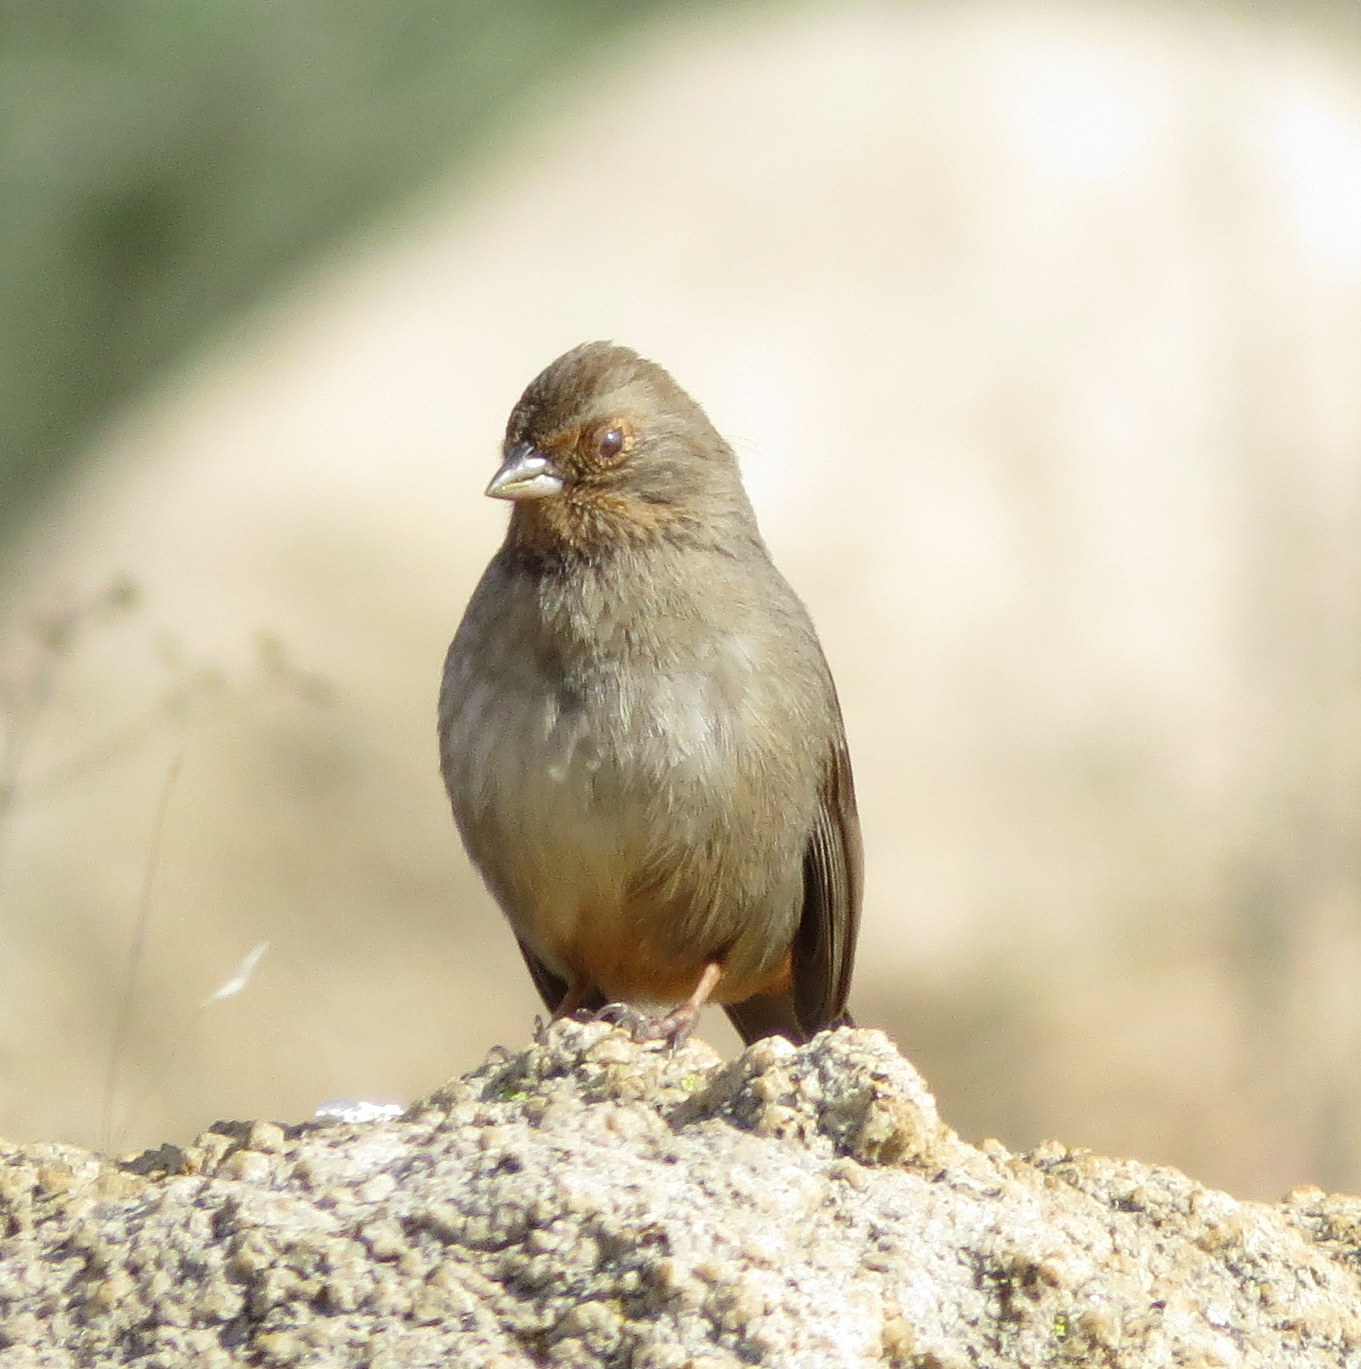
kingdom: Animalia
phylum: Chordata
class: Aves
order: Passeriformes
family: Passerellidae
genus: Melozone
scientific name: Melozone crissalis
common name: California towhee
